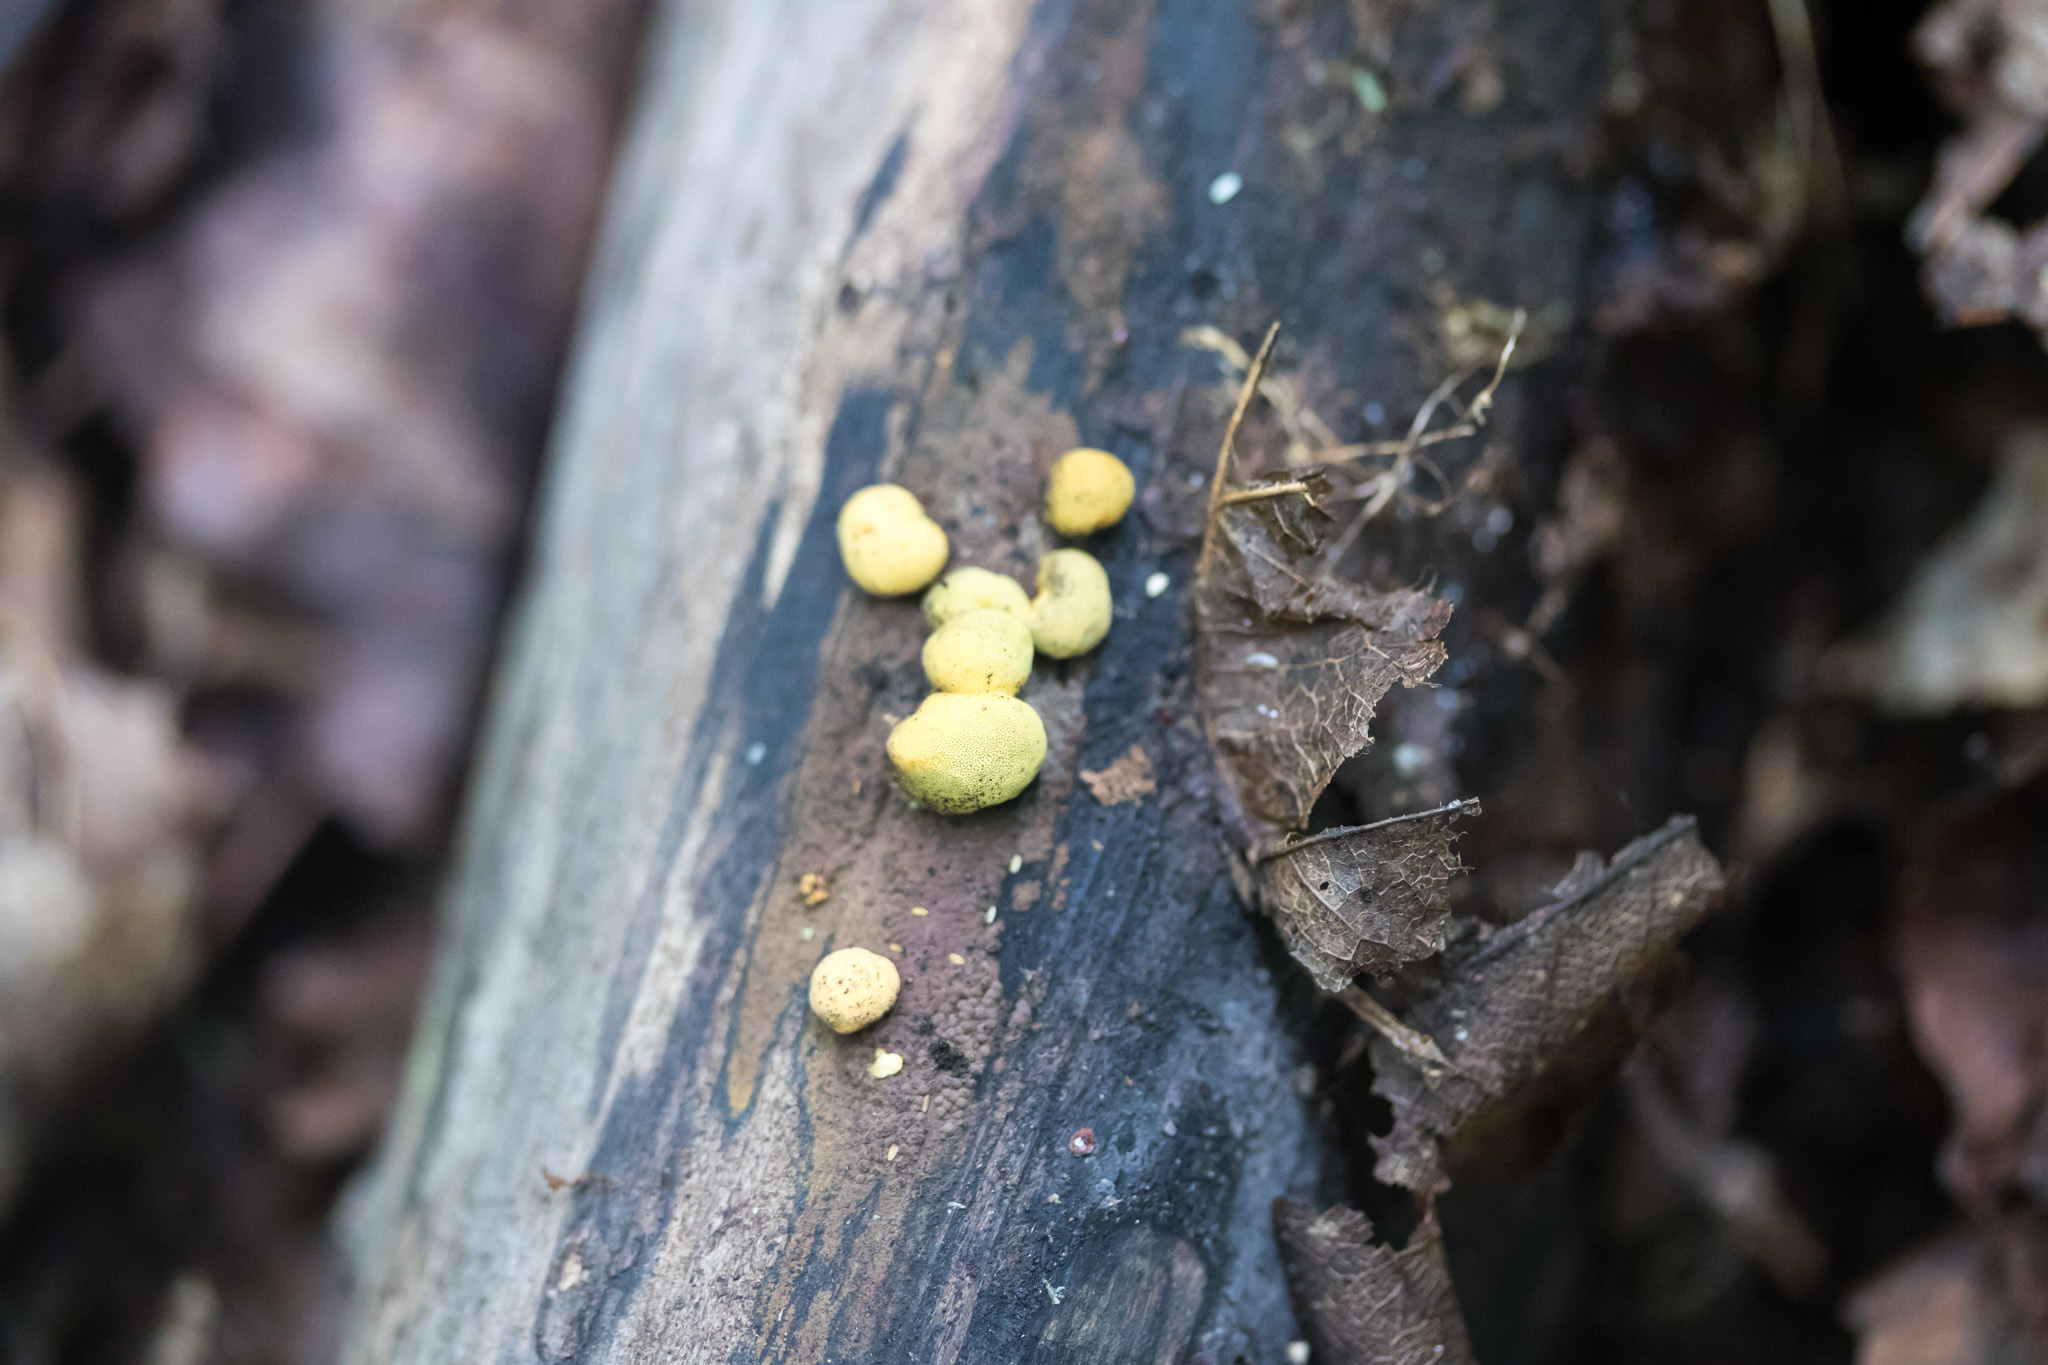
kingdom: Fungi
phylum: Ascomycota
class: Sordariomycetes
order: Xylariales
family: Hypoxylaceae
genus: Thuemenella
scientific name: Thuemenella cubispora
